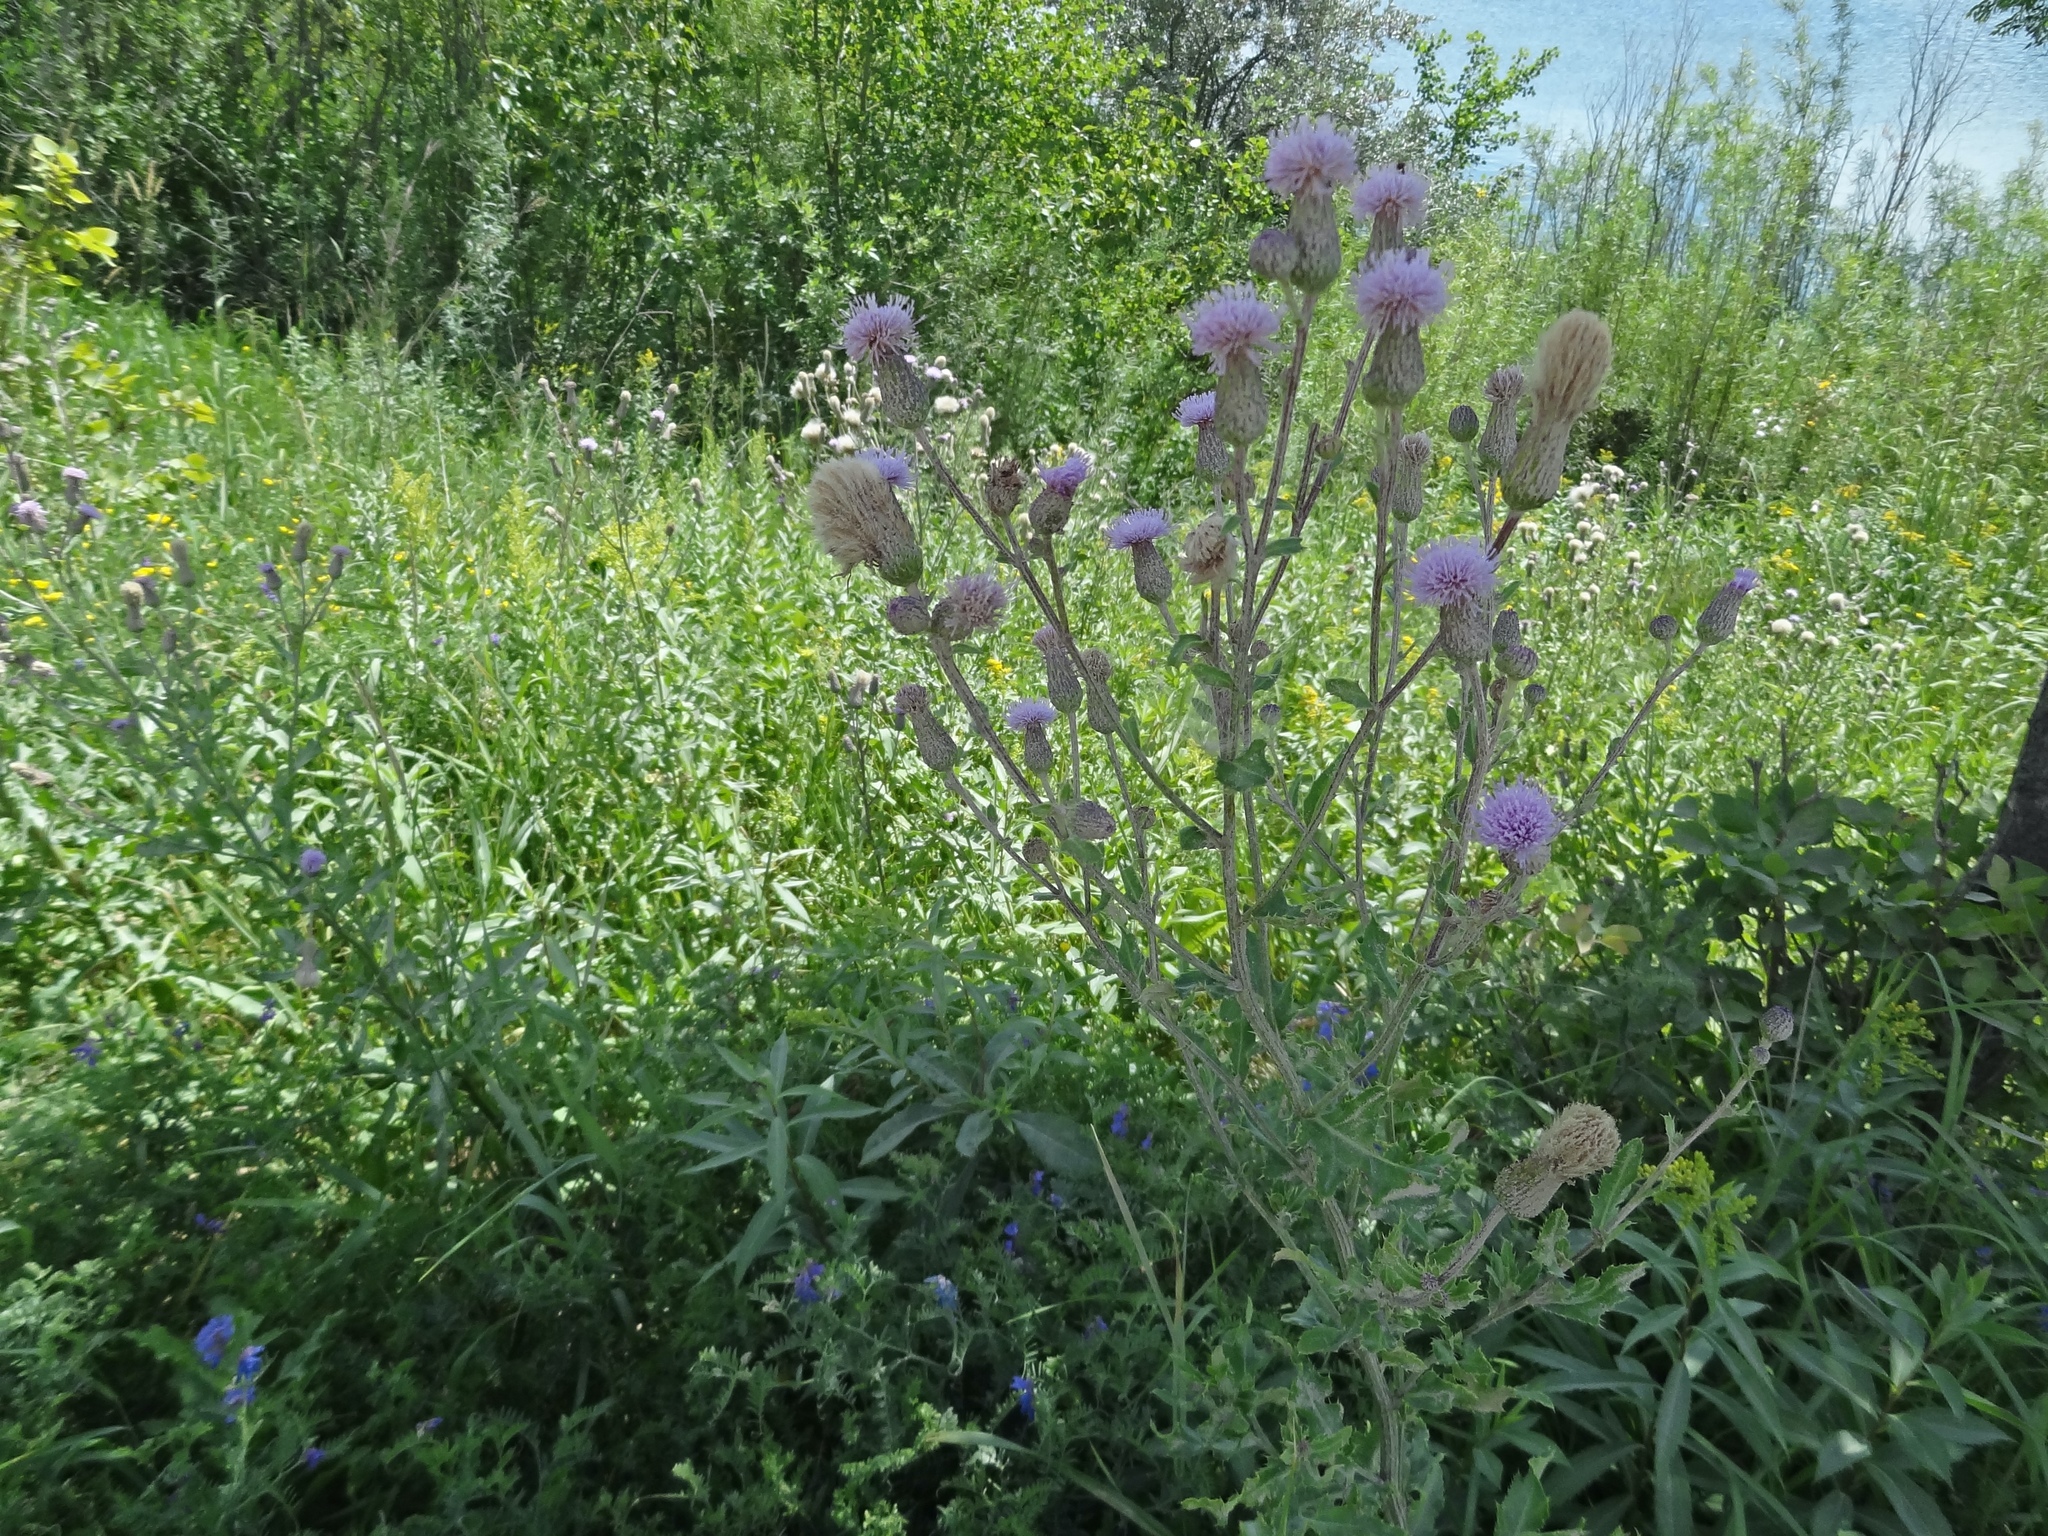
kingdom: Plantae
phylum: Tracheophyta
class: Magnoliopsida
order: Asterales
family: Asteraceae
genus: Cirsium
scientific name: Cirsium arvense
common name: Creeping thistle
